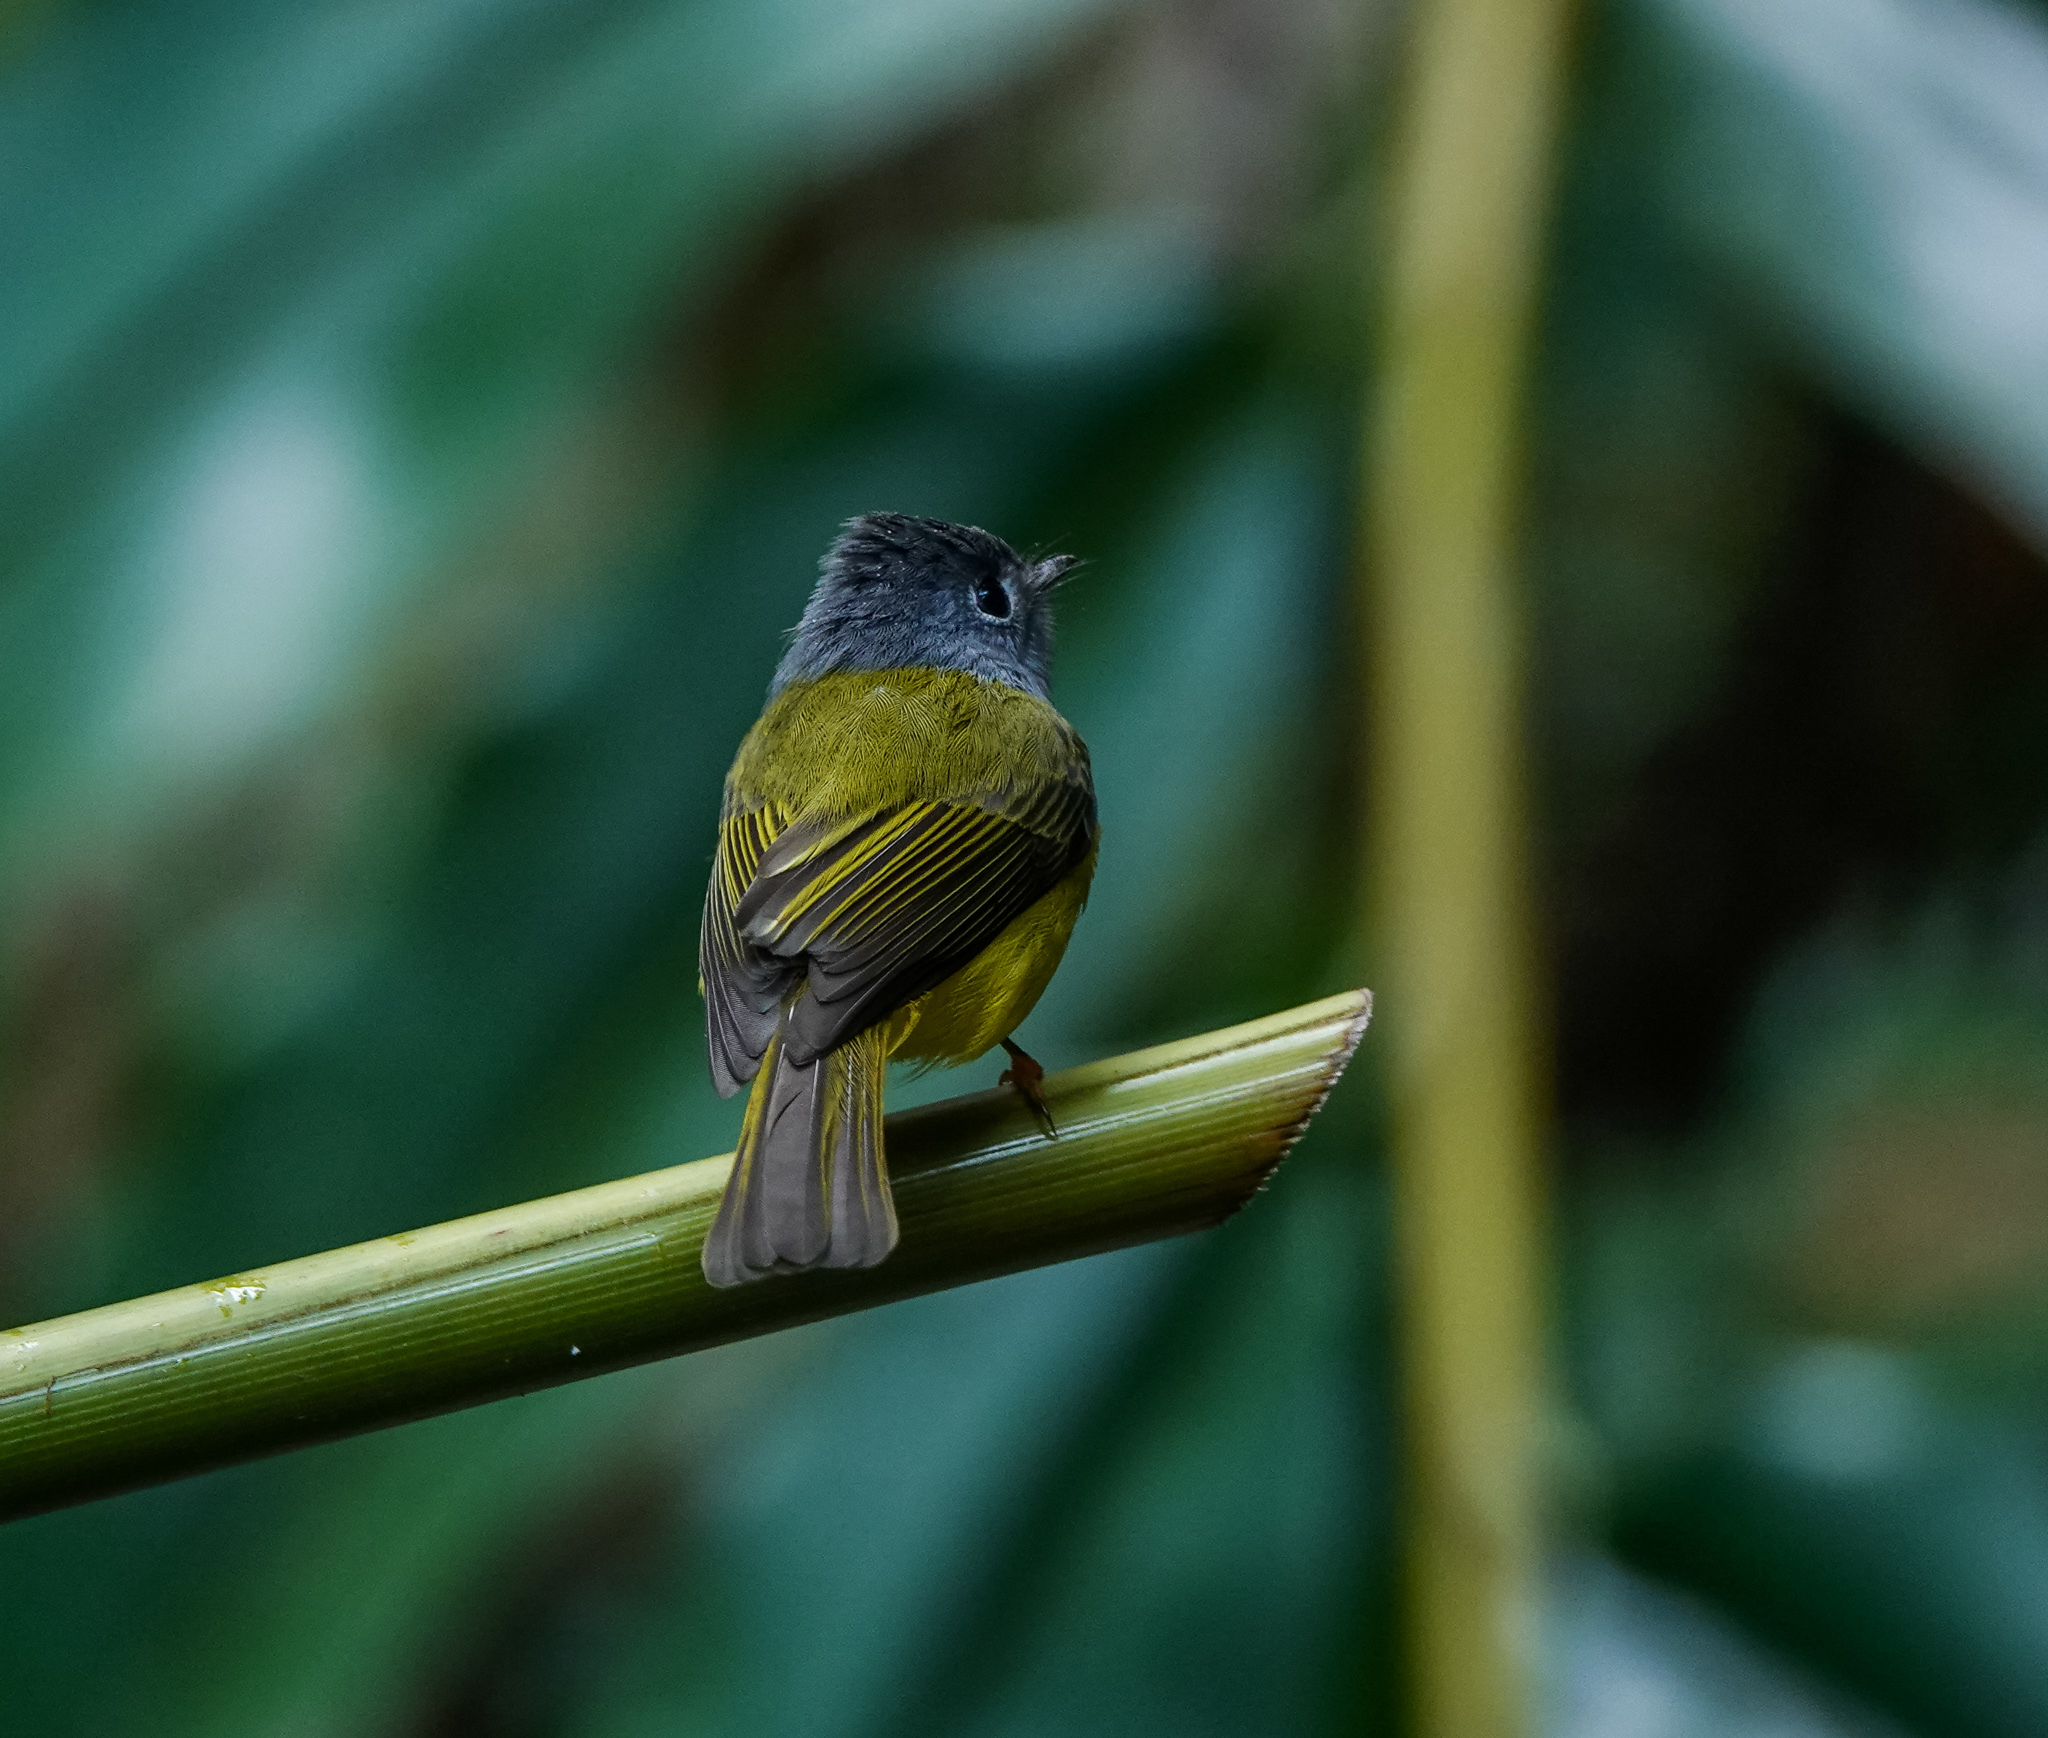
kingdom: Animalia
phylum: Chordata
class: Aves
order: Passeriformes
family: Stenostiridae
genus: Culicicapa
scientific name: Culicicapa ceylonensis
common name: Grey-headed canary-flycatcher
